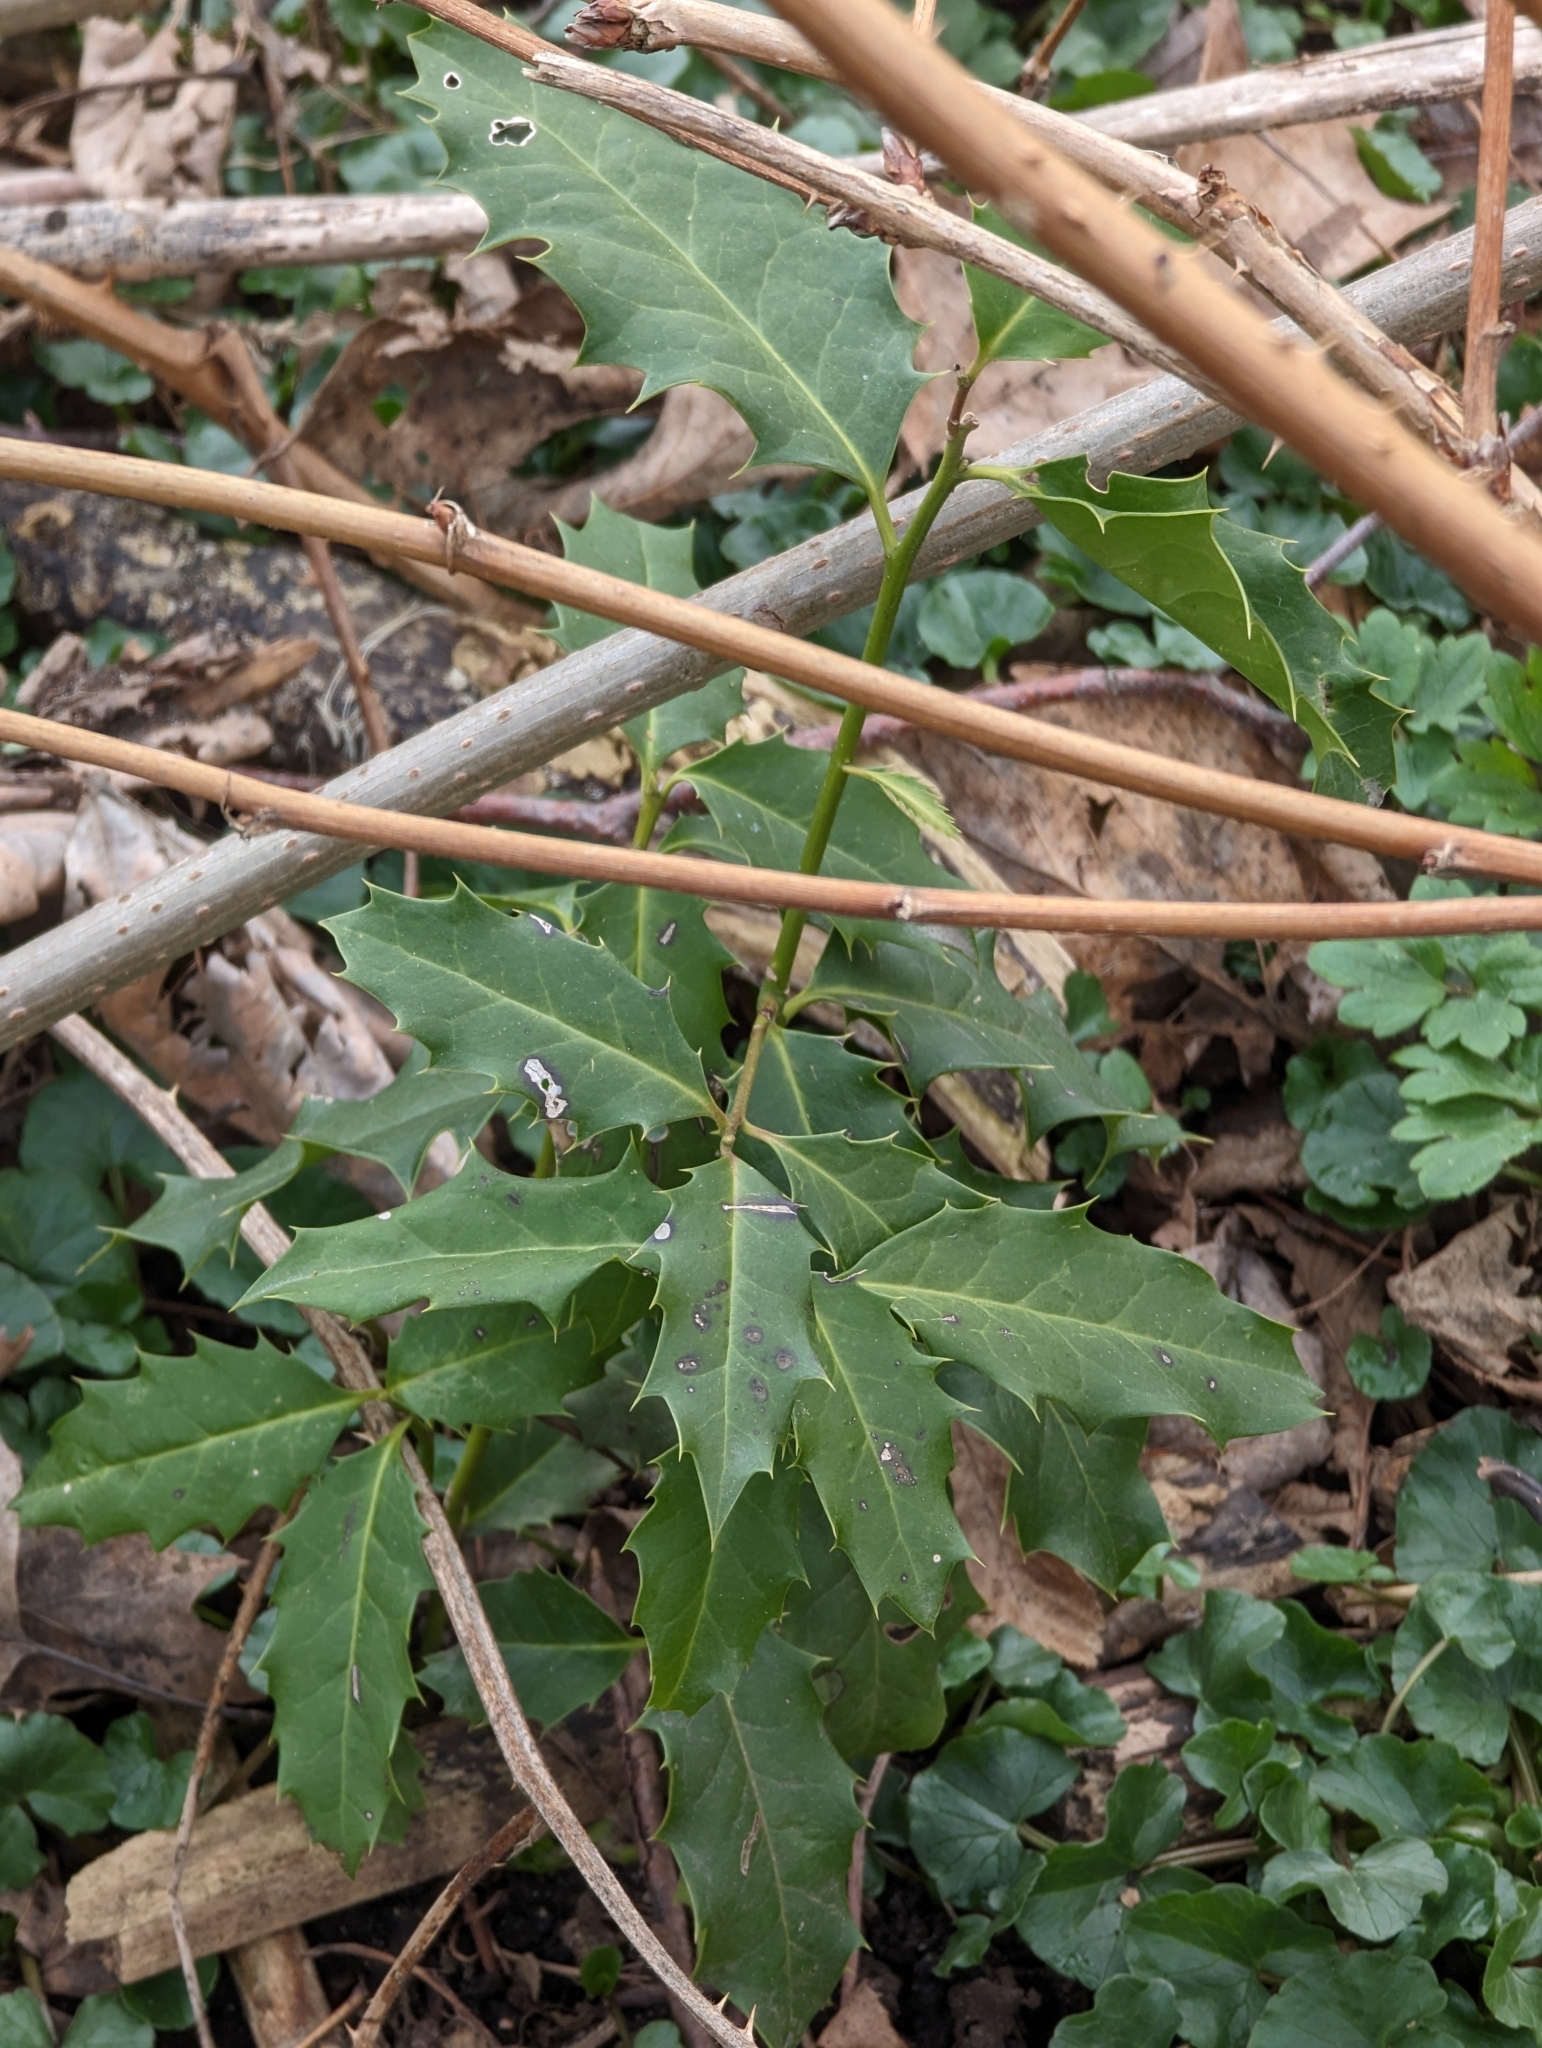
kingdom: Plantae
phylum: Tracheophyta
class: Magnoliopsida
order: Aquifoliales
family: Aquifoliaceae
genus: Ilex
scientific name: Ilex aquifolium
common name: English holly
